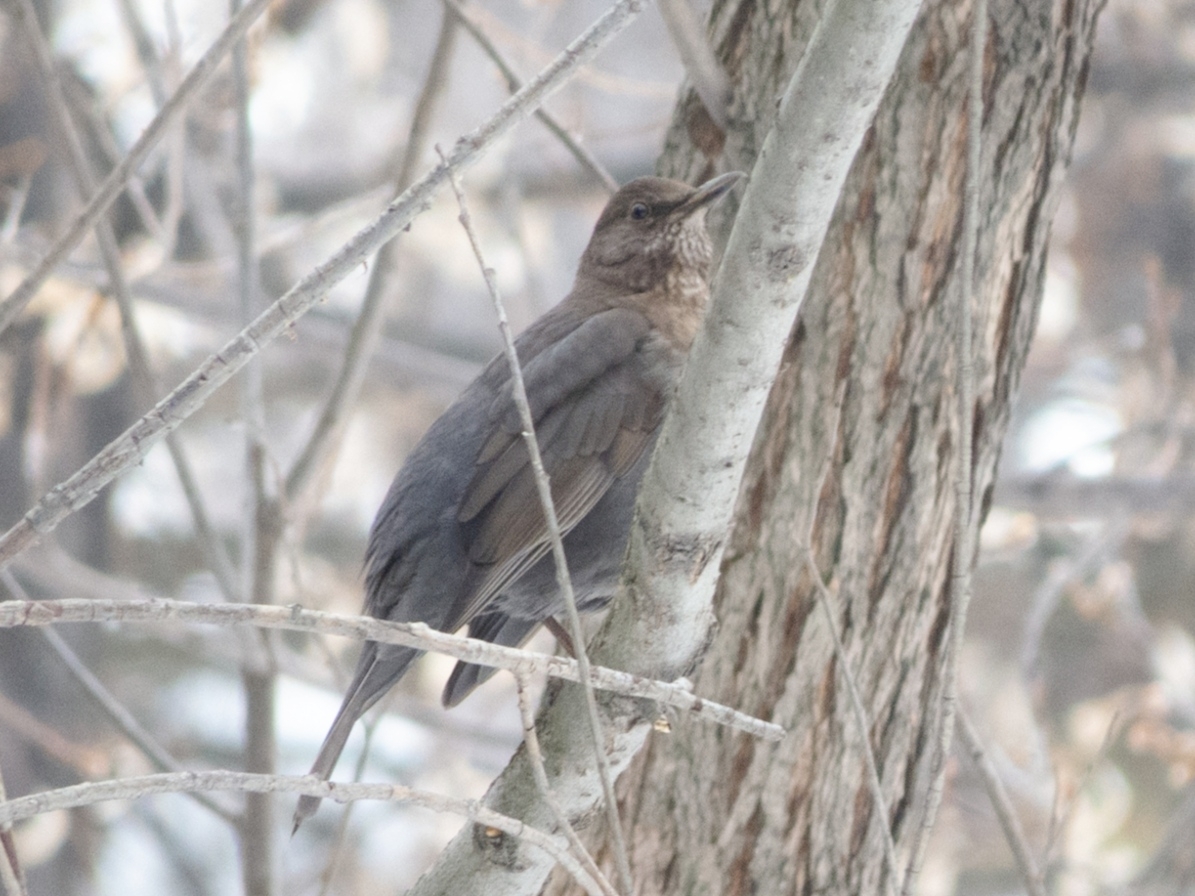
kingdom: Animalia
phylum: Chordata
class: Aves
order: Passeriformes
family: Turdidae
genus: Turdus
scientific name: Turdus merula
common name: Common blackbird
